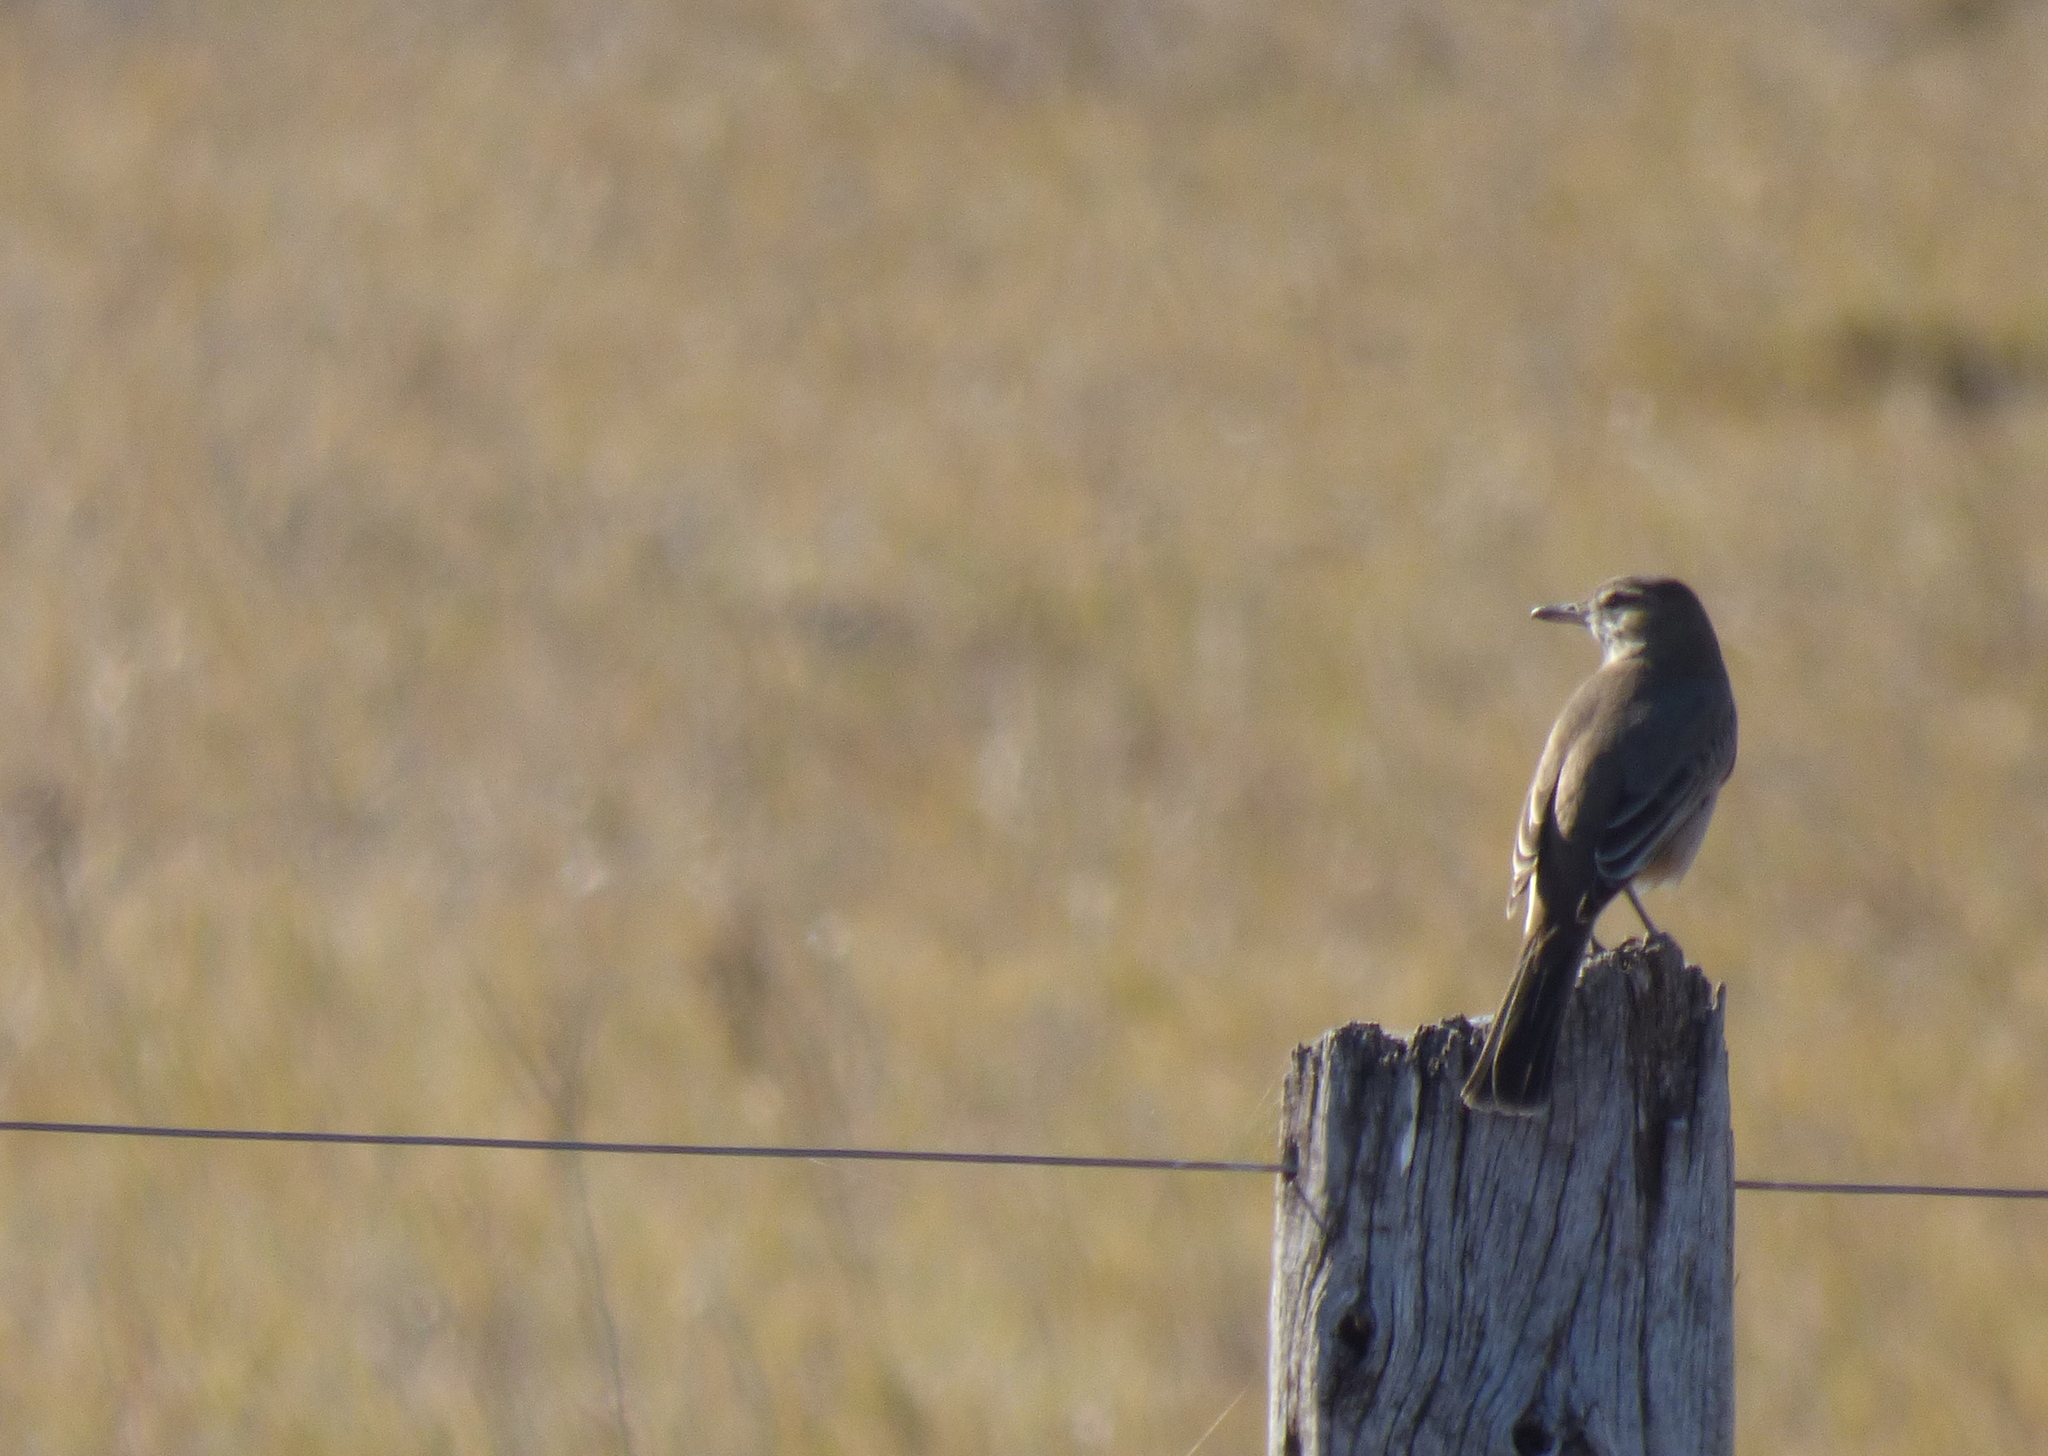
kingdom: Animalia
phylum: Chordata
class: Aves
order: Passeriformes
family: Tyrannidae
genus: Agriornis
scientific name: Agriornis micropterus
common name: Grey-bellied shrike-tyrant
